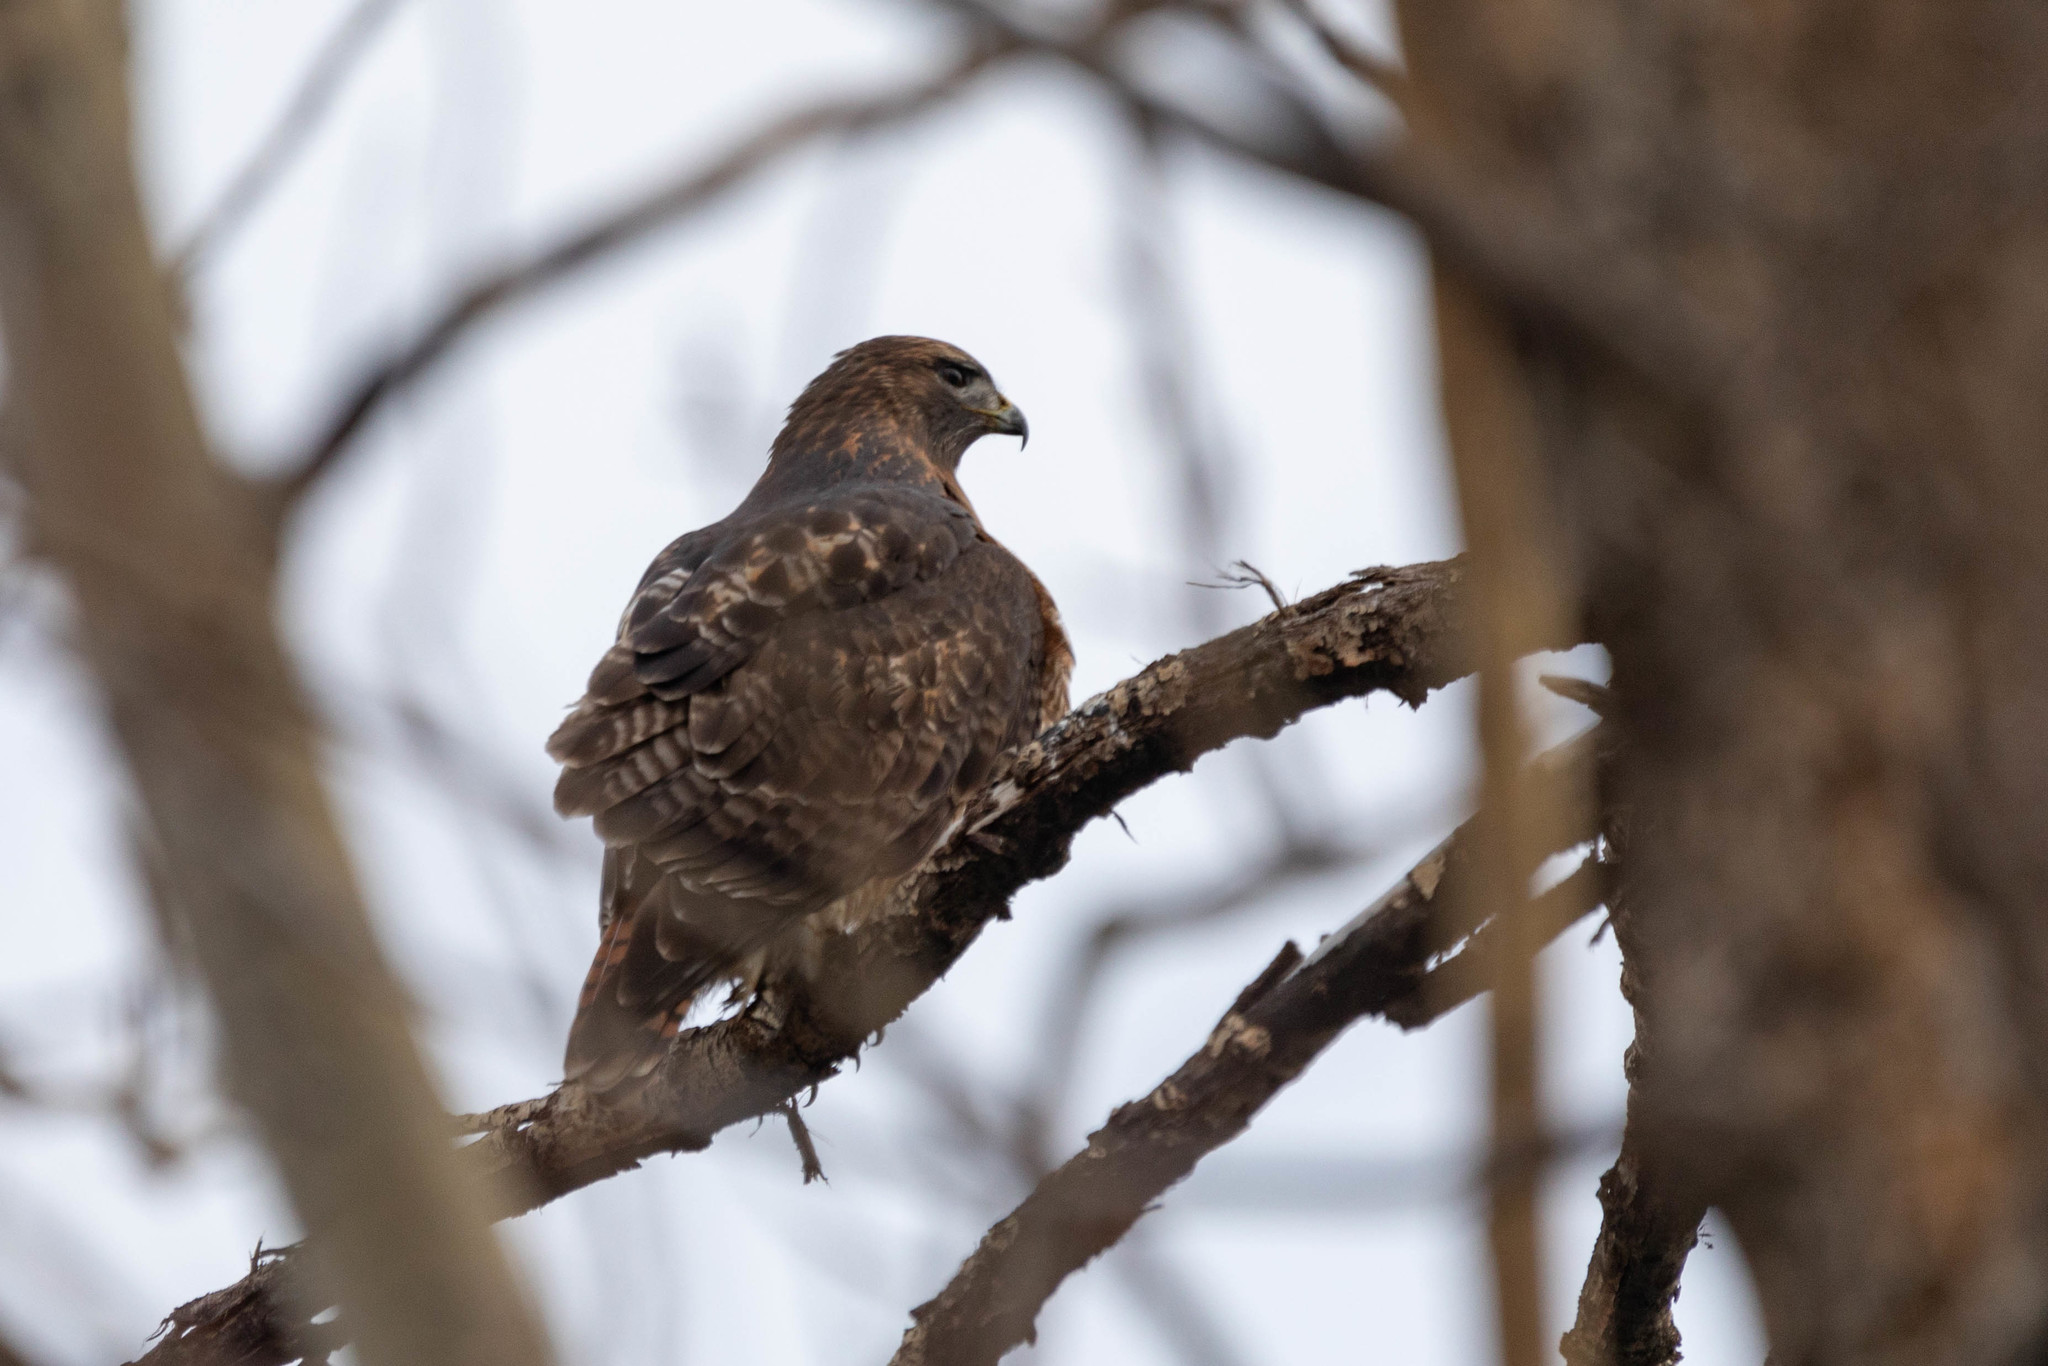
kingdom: Animalia
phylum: Chordata
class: Aves
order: Accipitriformes
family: Accipitridae
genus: Buteo
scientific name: Buteo jamaicensis
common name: Red-tailed hawk
